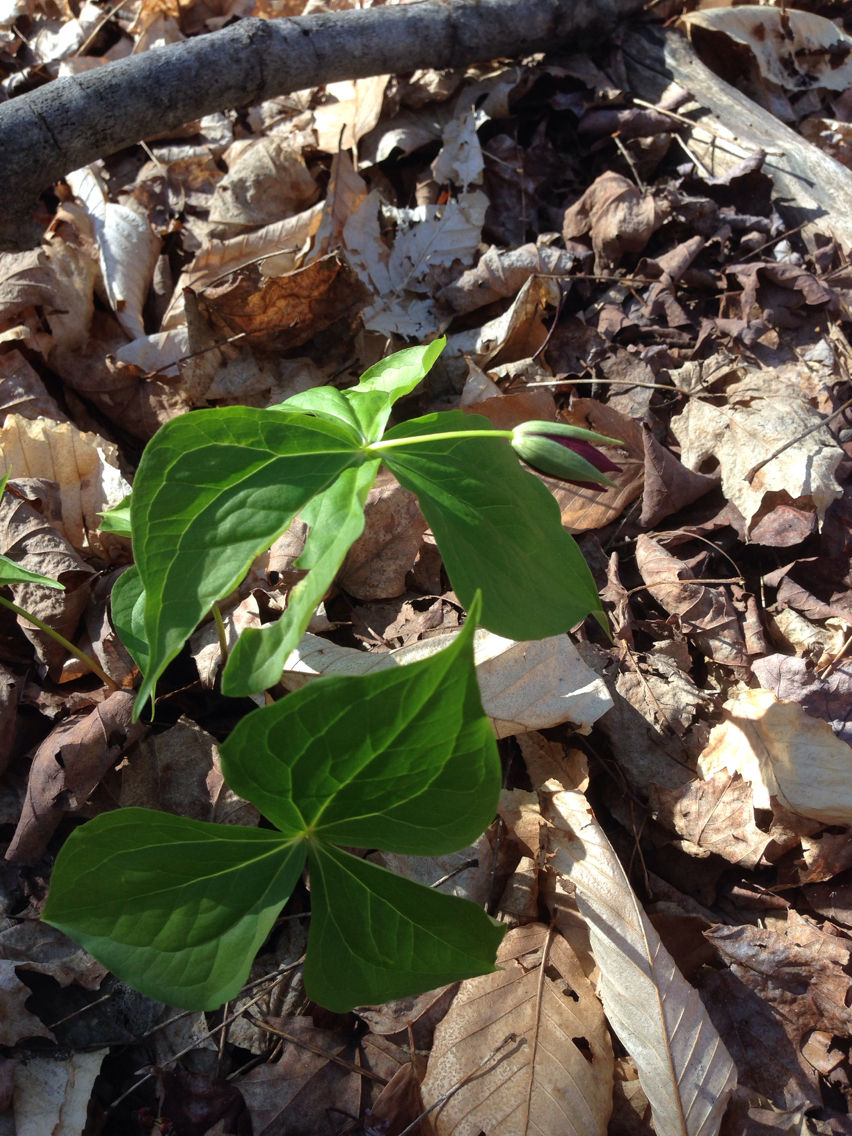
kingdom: Plantae
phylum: Tracheophyta
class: Liliopsida
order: Liliales
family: Melanthiaceae
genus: Trillium
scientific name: Trillium erectum
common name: Purple trillium
